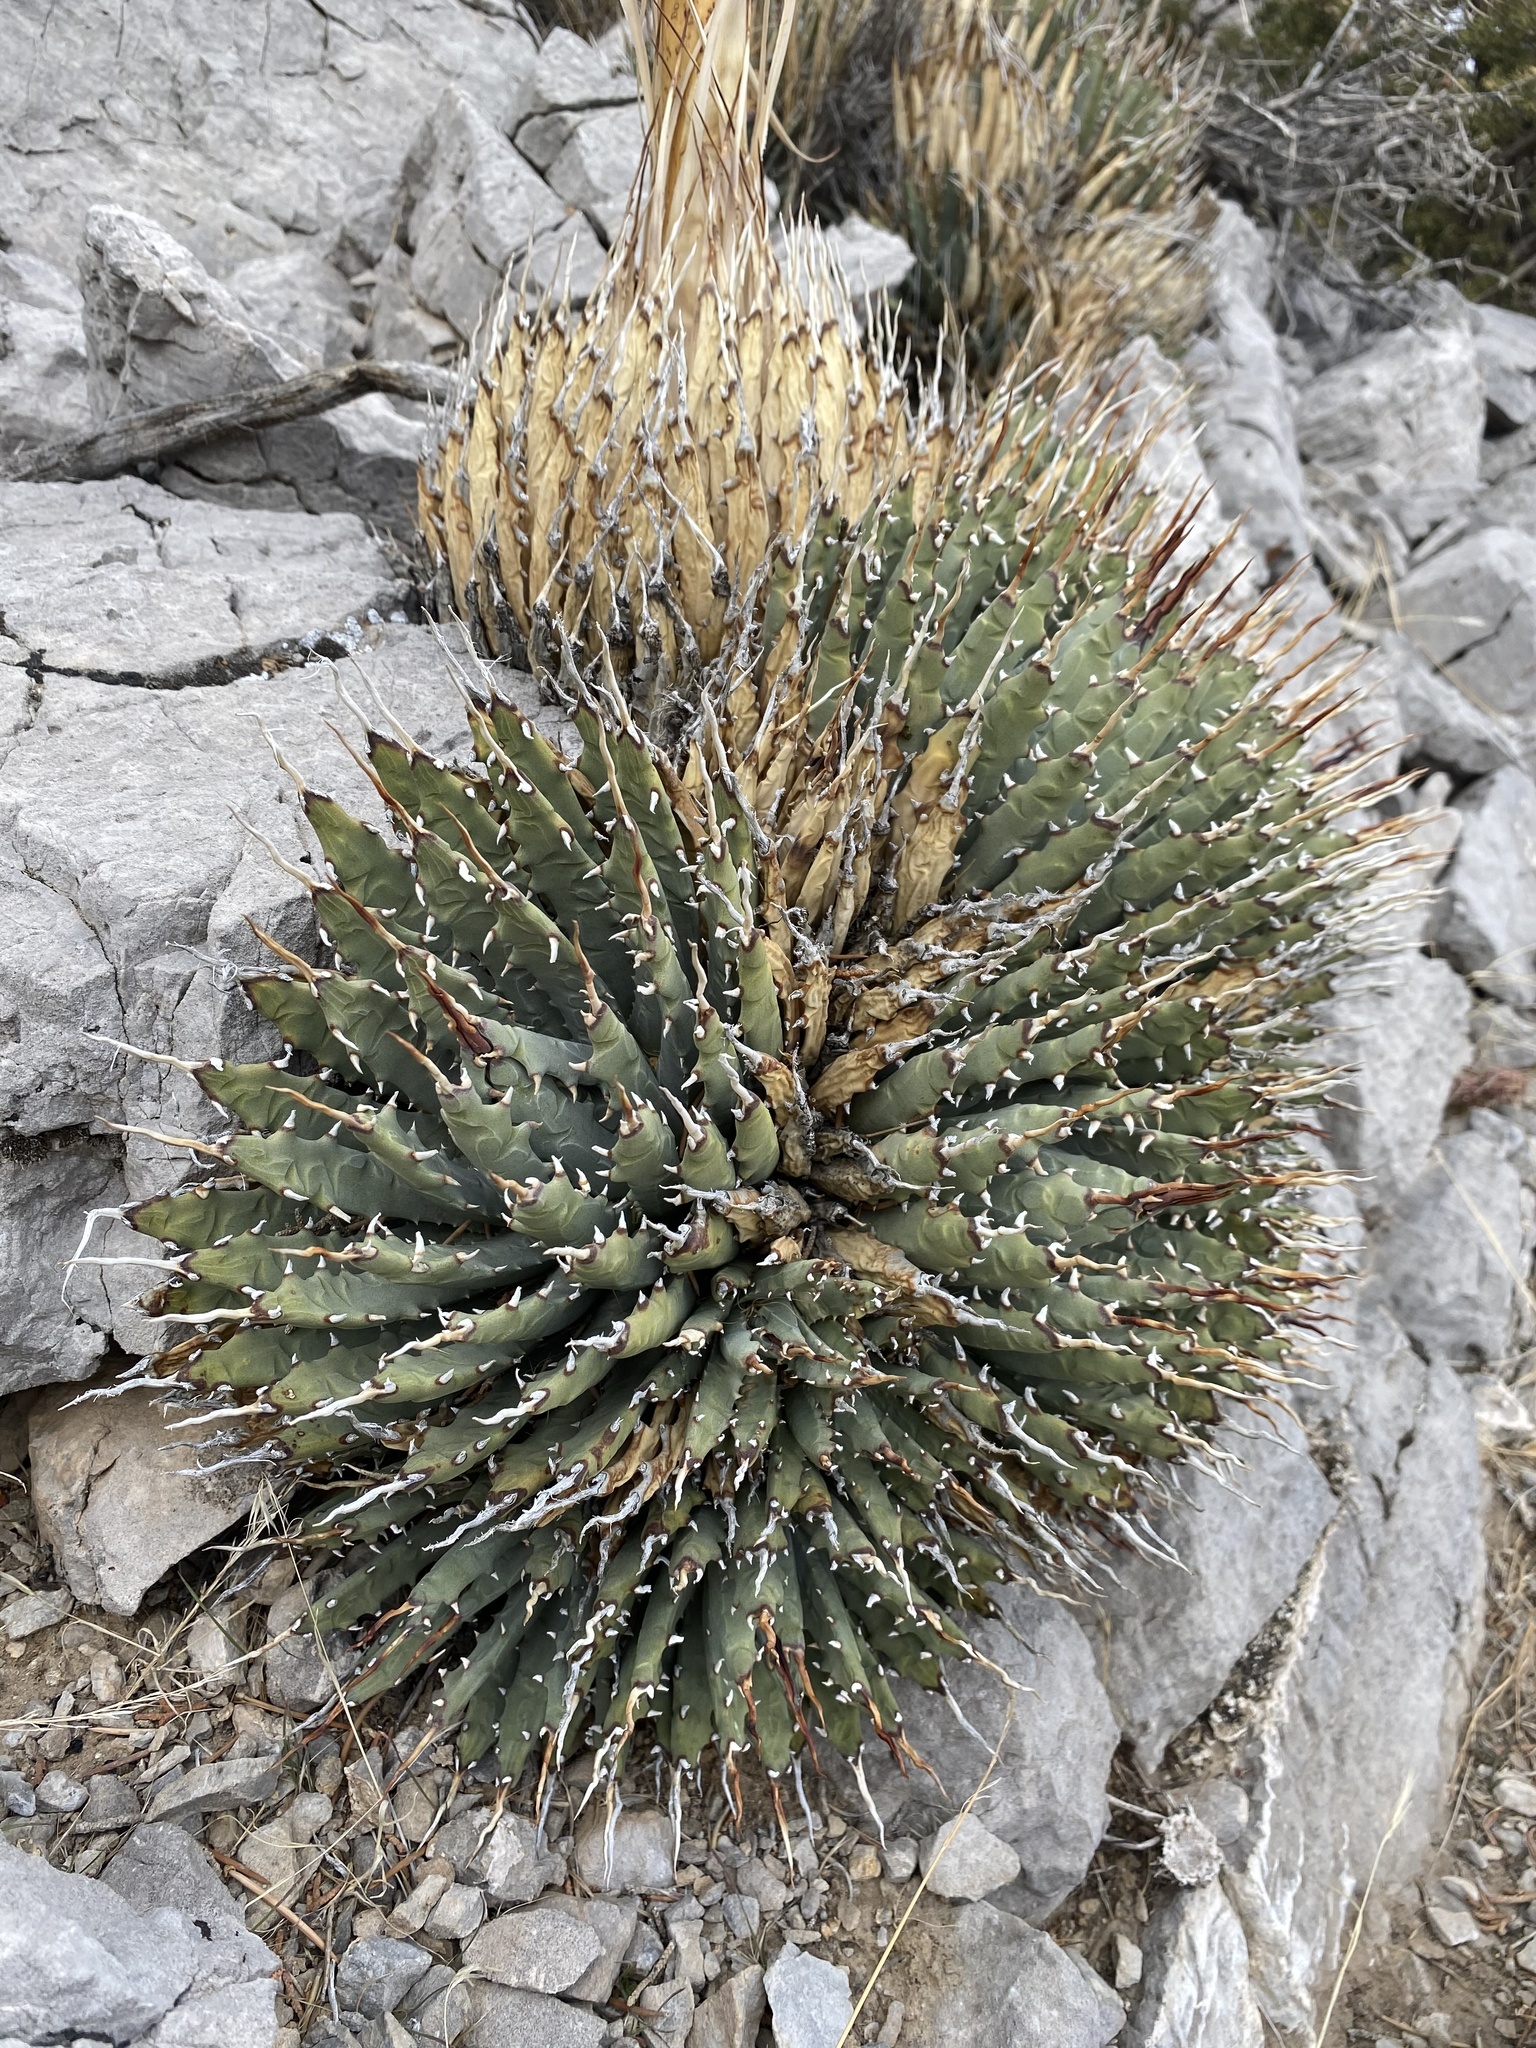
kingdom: Plantae
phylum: Tracheophyta
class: Liliopsida
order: Asparagales
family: Asparagaceae
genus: Agave
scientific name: Agave utahensis
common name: Utah agave
